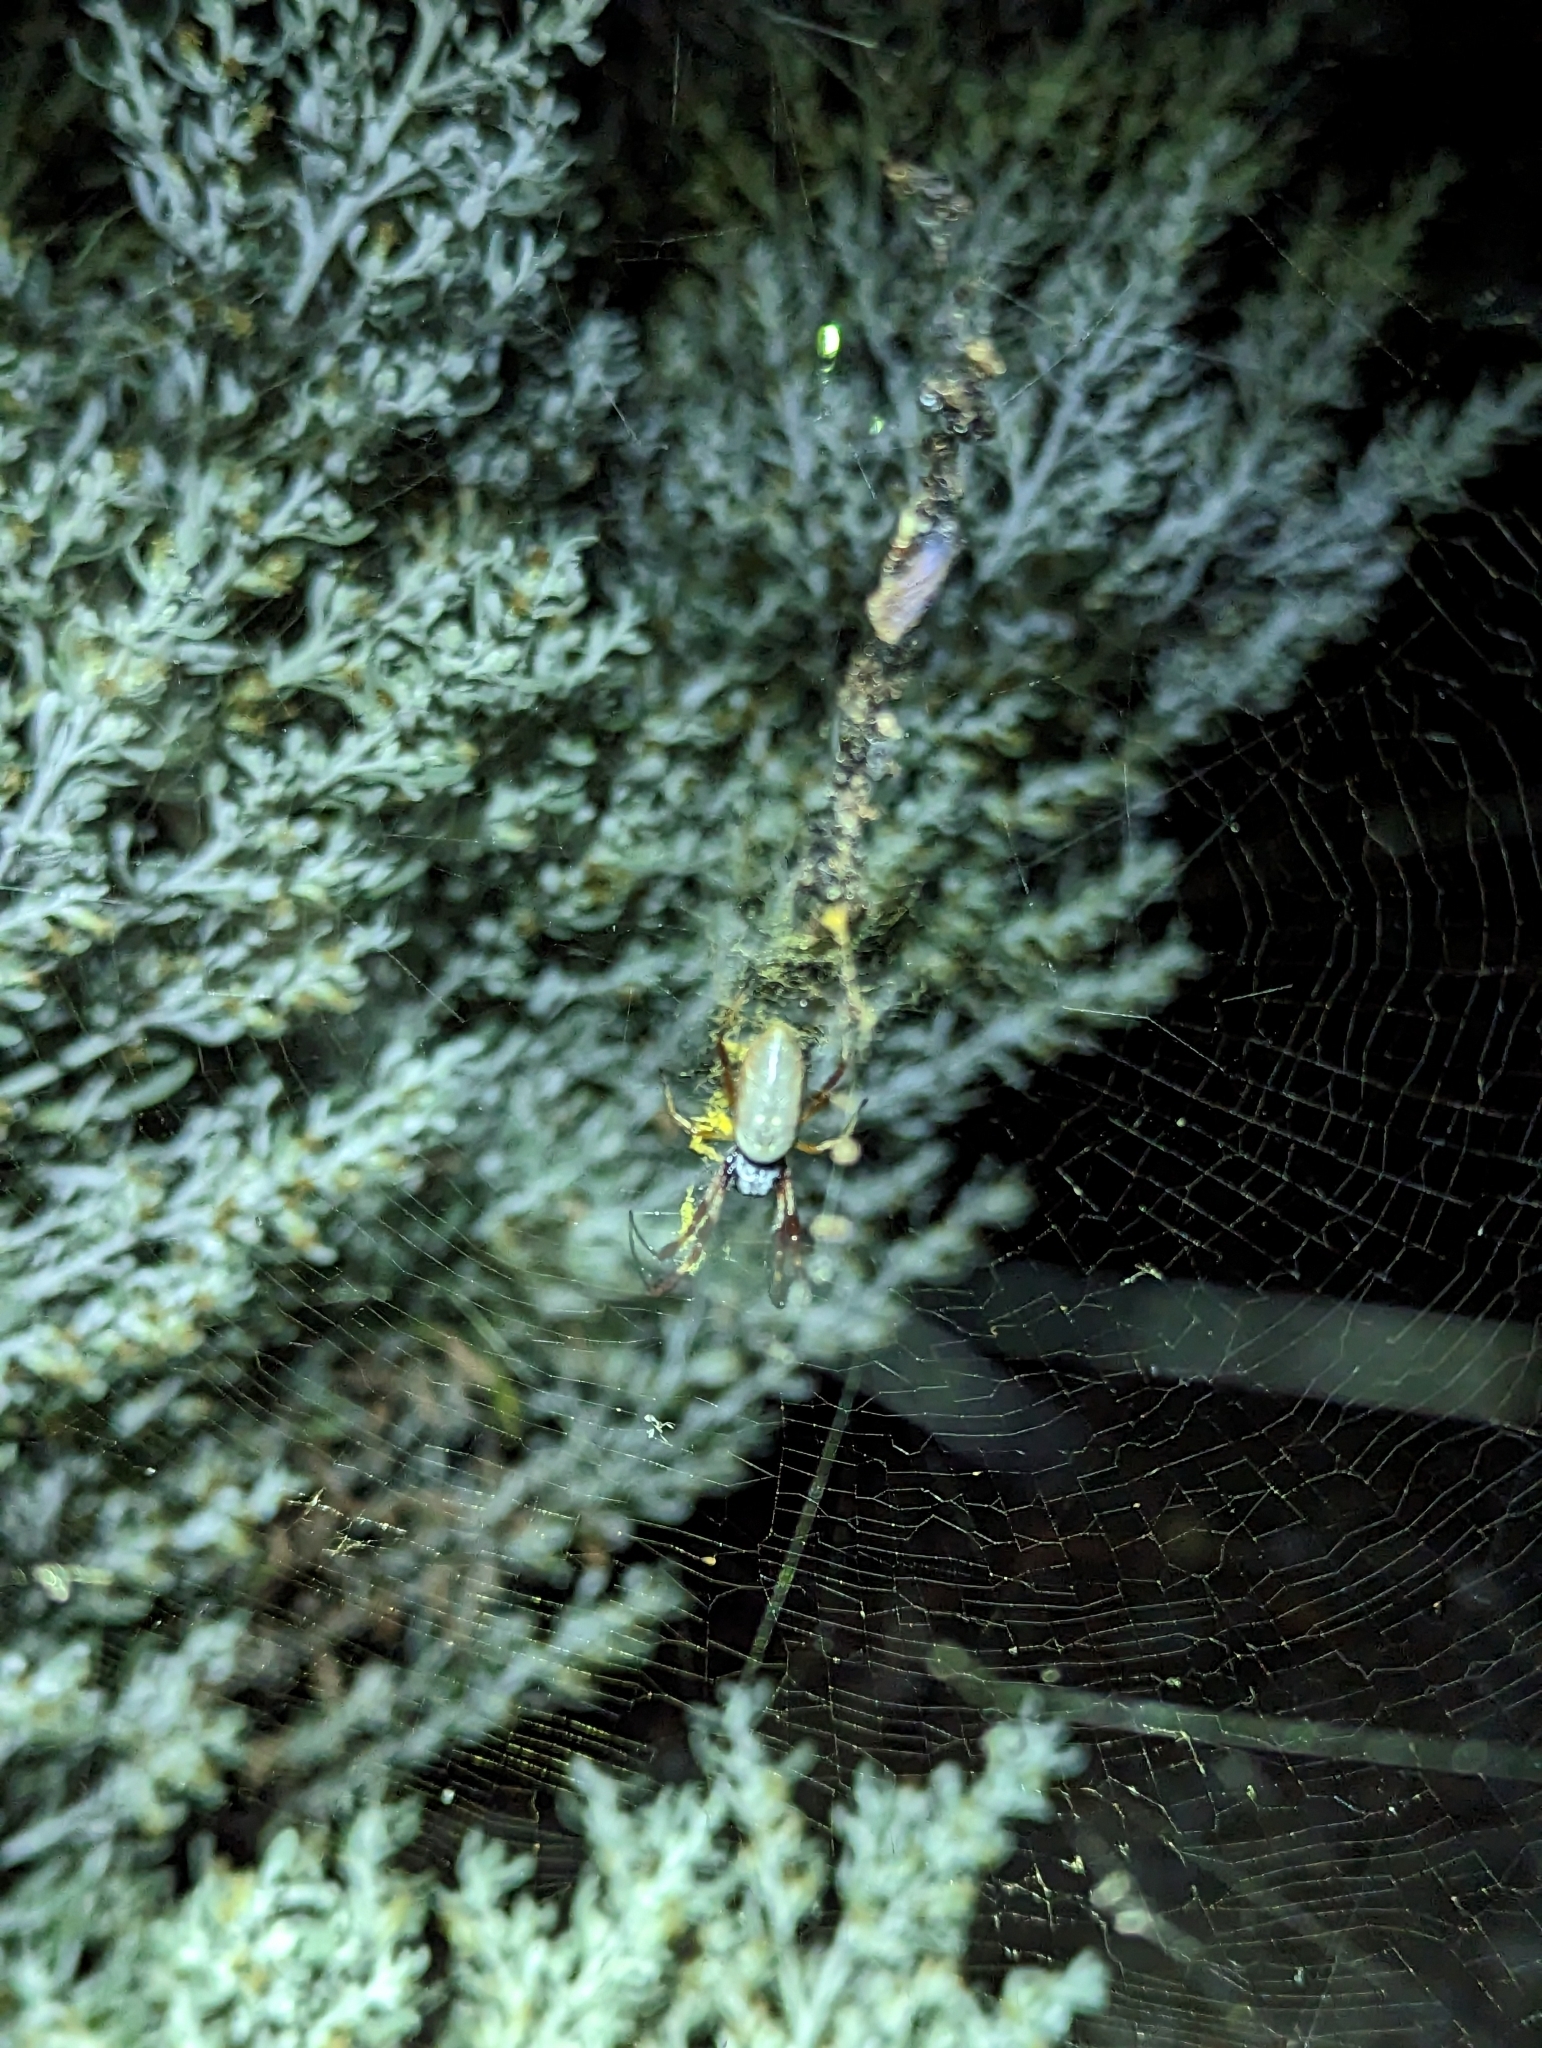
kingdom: Animalia
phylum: Arthropoda
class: Arachnida
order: Araneae
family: Araneidae
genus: Trichonephila
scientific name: Trichonephila edulis
